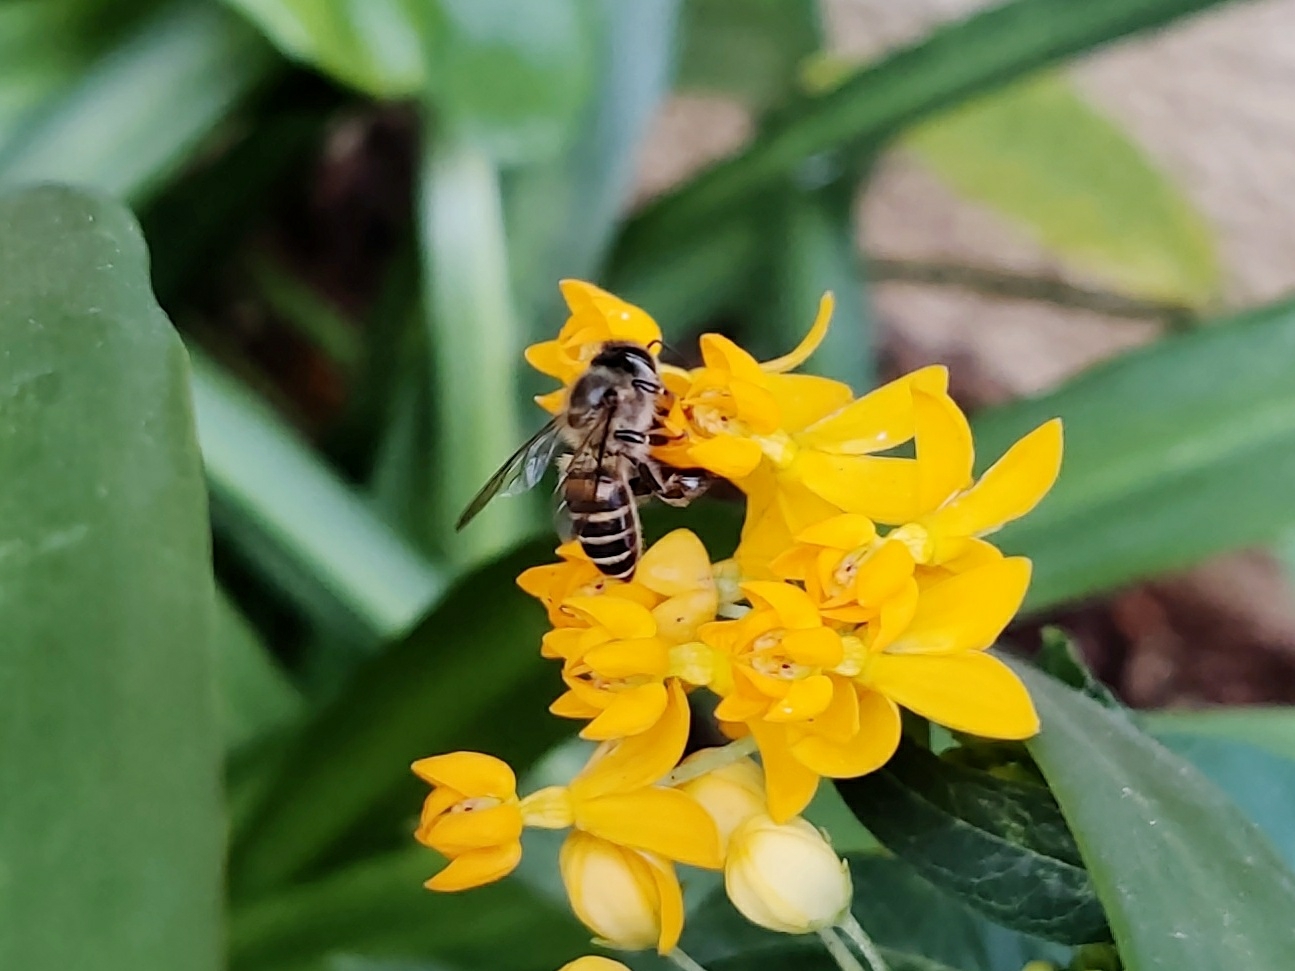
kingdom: Animalia
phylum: Arthropoda
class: Insecta
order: Hymenoptera
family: Apidae
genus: Apis
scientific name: Apis cerana
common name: Honey bee
